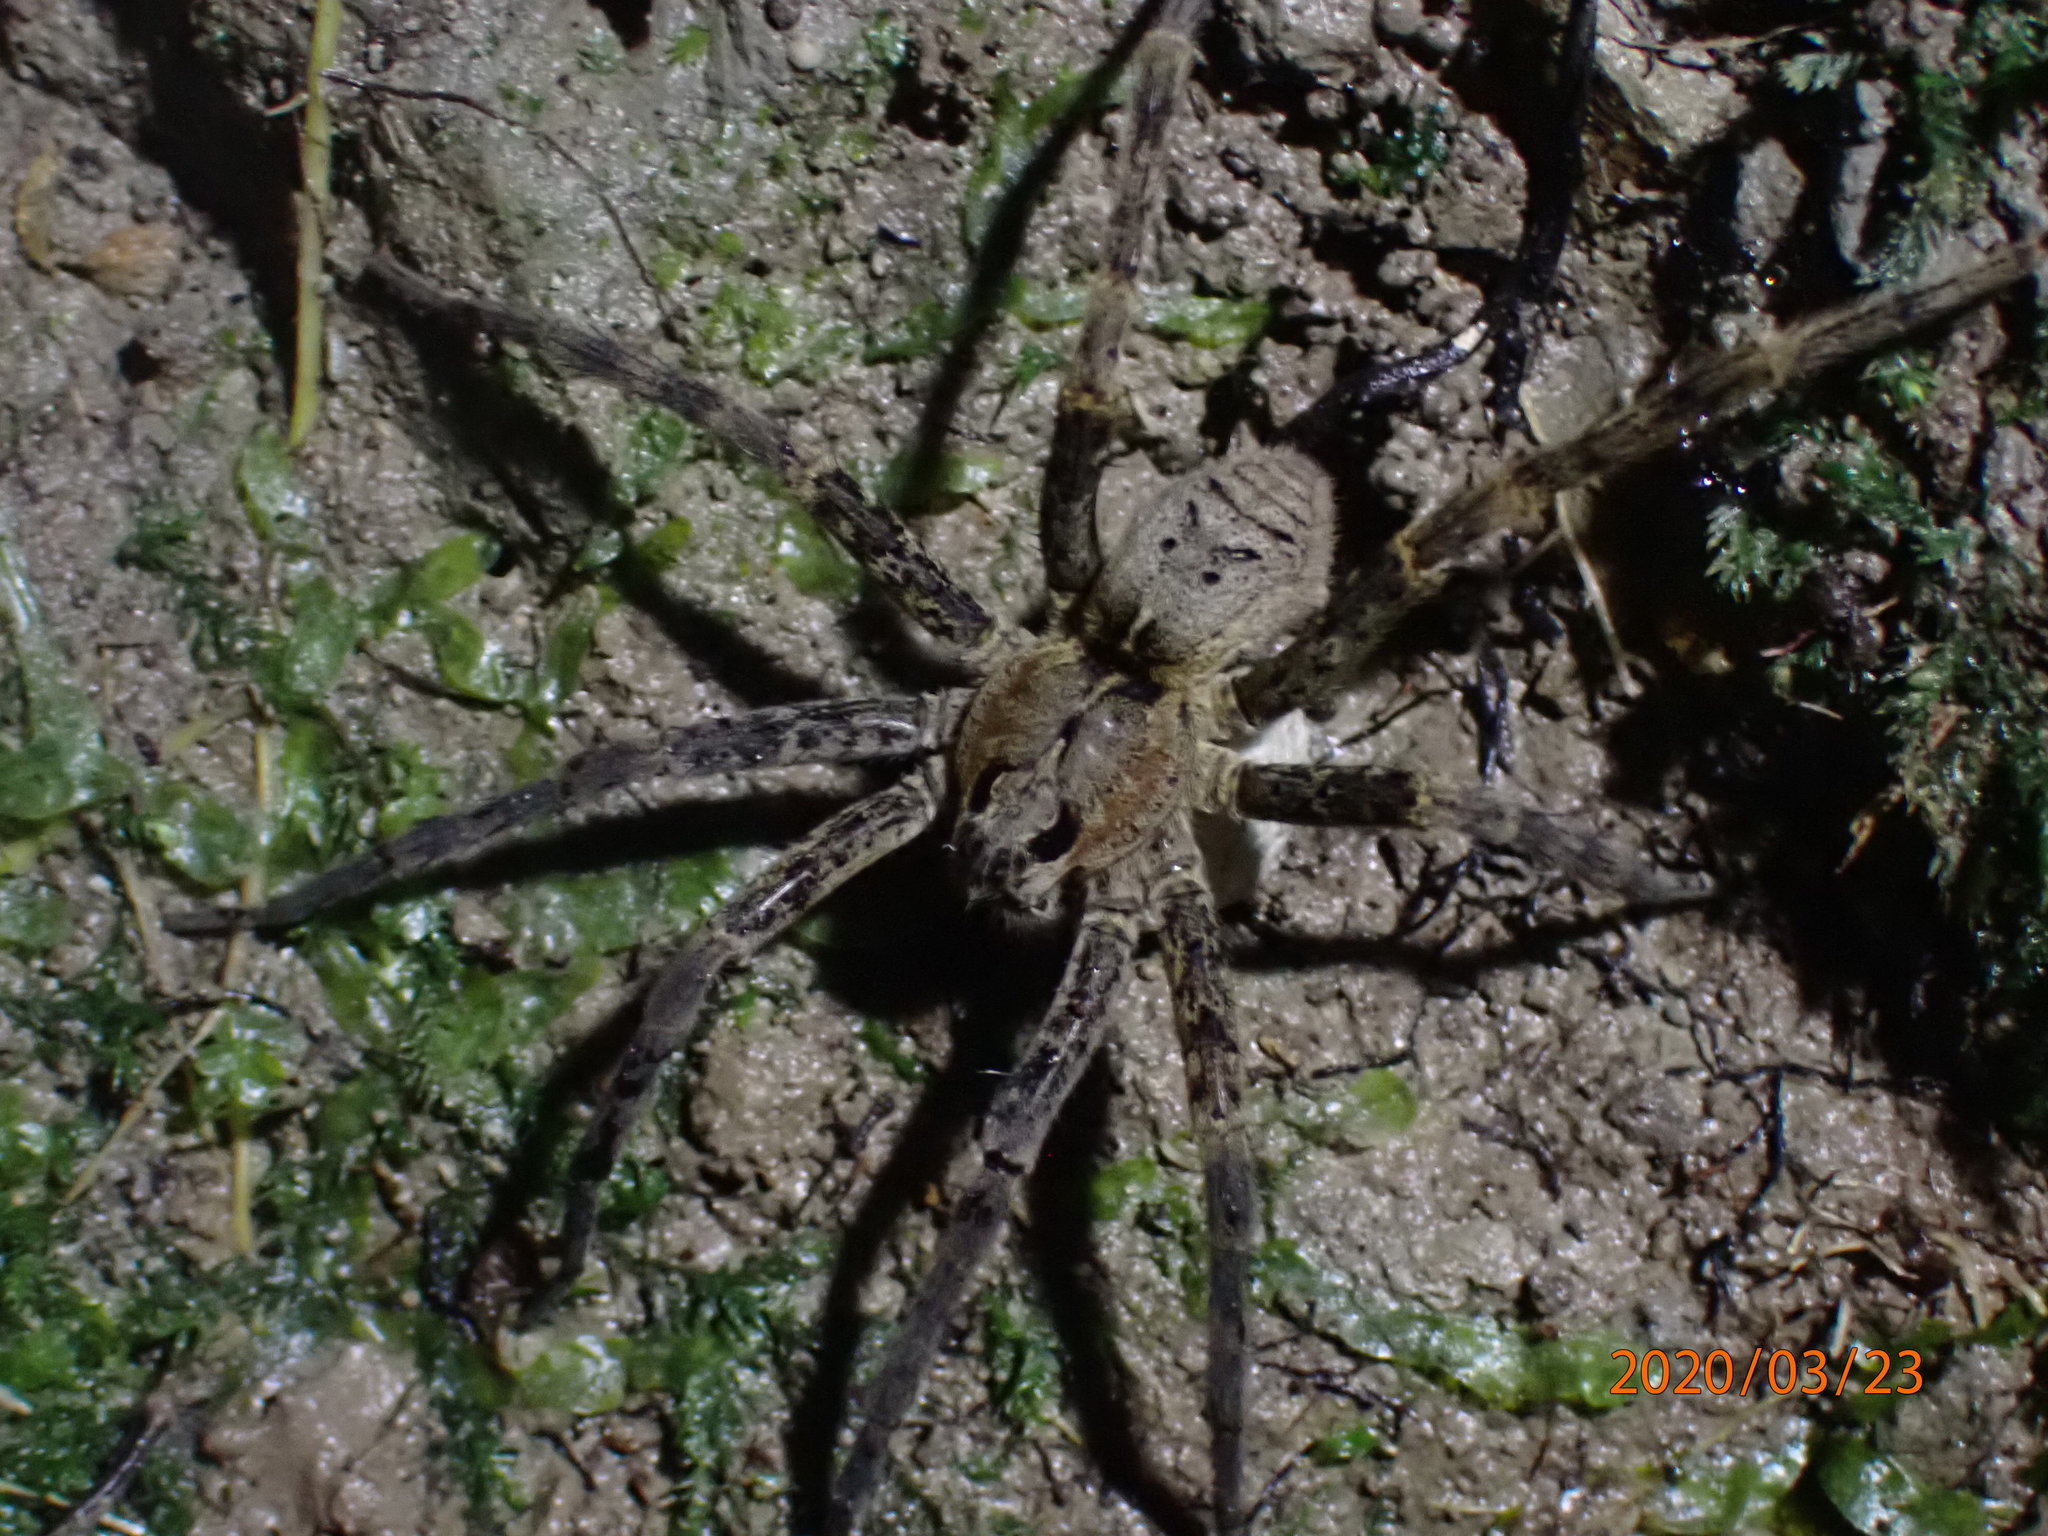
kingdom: Animalia
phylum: Arthropoda
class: Arachnida
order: Araneae
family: Pisauridae
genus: Dolomedes
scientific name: Dolomedes dondalei
